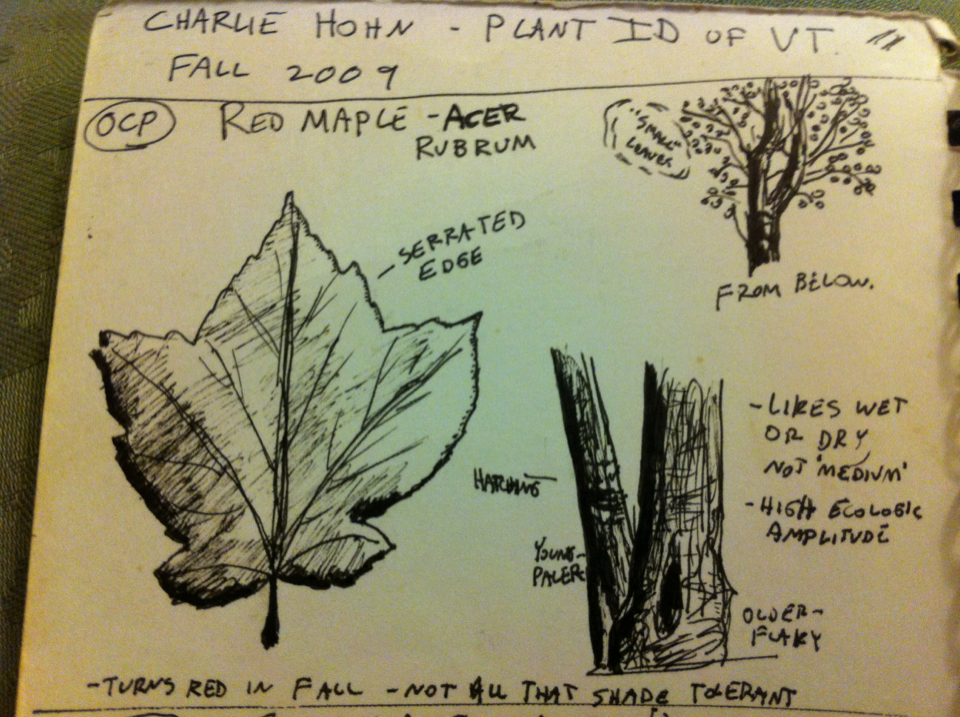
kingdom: Plantae
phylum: Tracheophyta
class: Magnoliopsida
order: Sapindales
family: Sapindaceae
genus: Acer
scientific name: Acer rubrum
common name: Red maple
